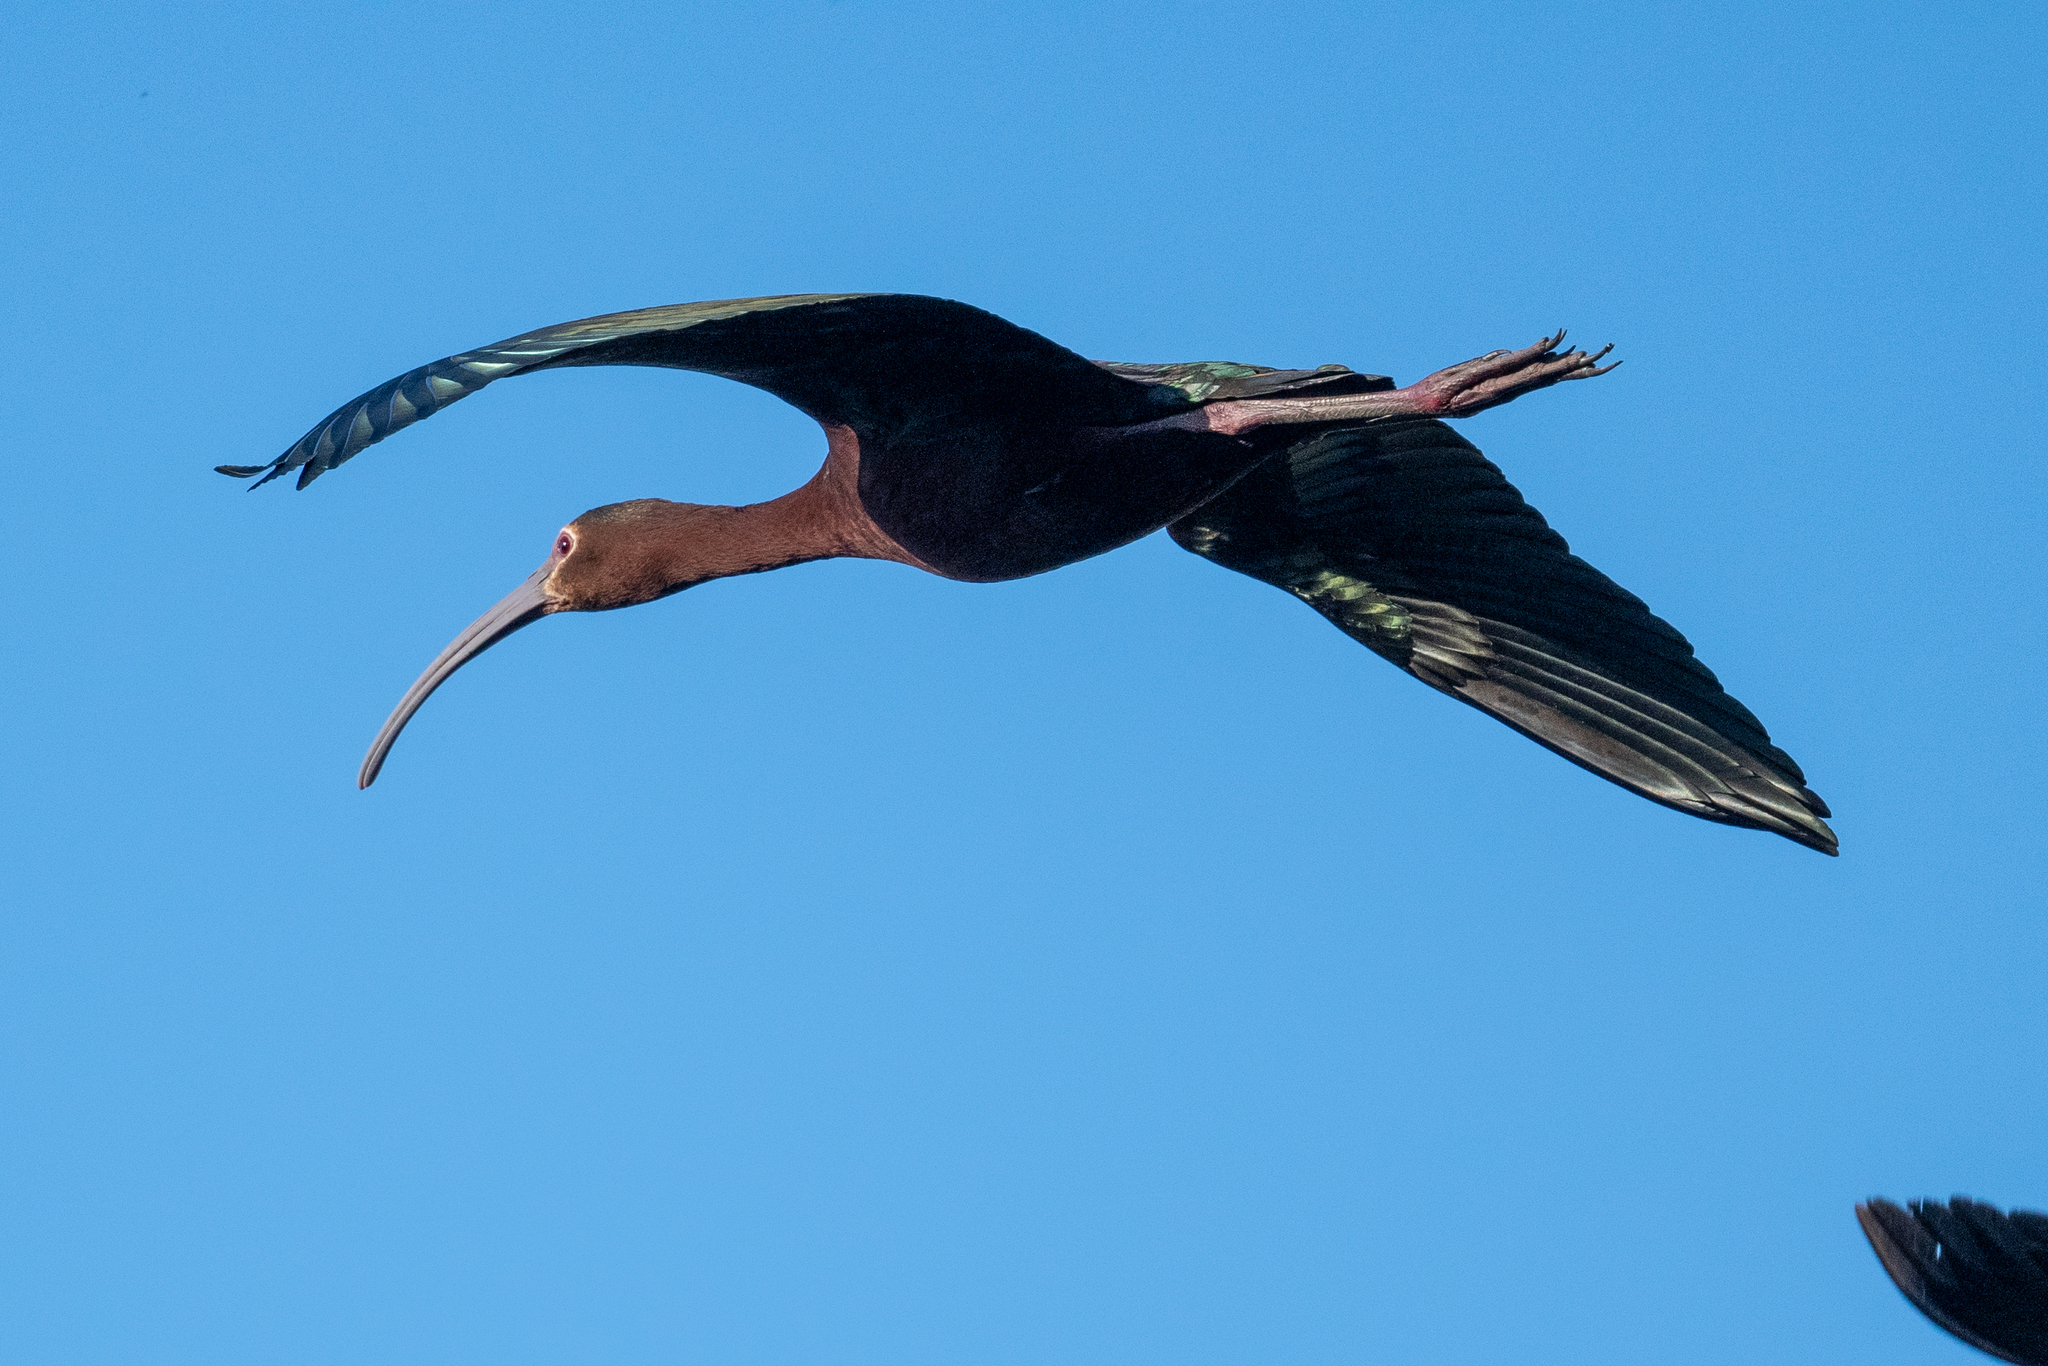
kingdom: Animalia
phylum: Chordata
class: Aves
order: Pelecaniformes
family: Threskiornithidae
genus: Plegadis
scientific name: Plegadis chihi
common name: White-faced ibis
